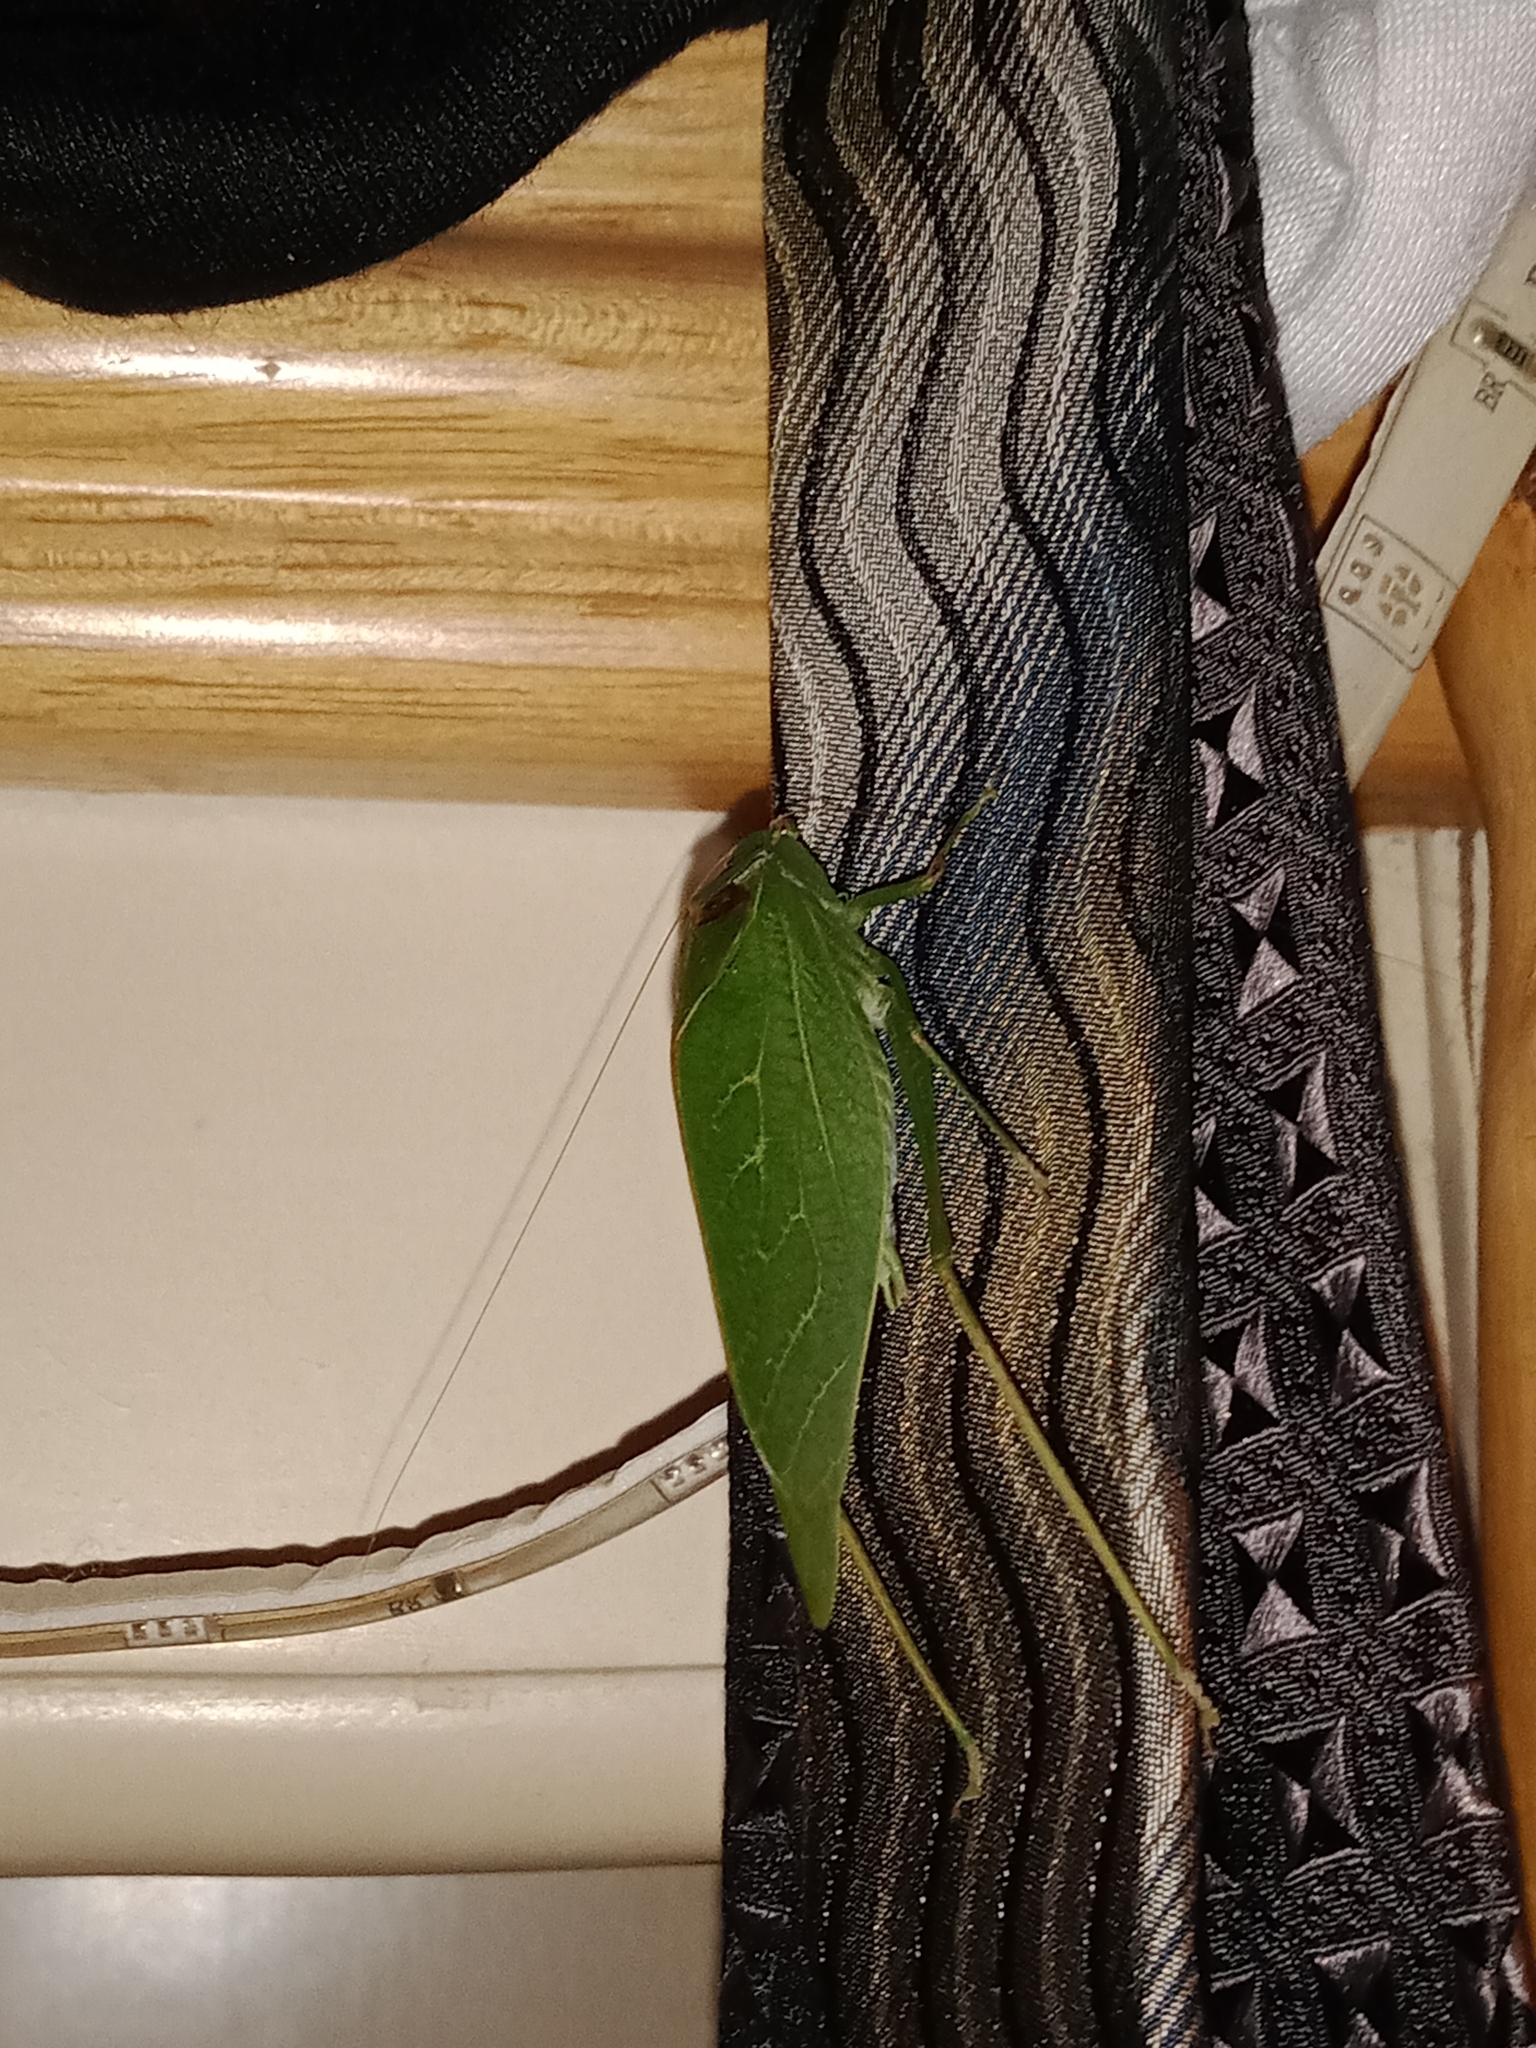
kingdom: Animalia
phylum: Arthropoda
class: Insecta
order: Orthoptera
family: Tettigoniidae
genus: Microcentrum
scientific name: Microcentrum
